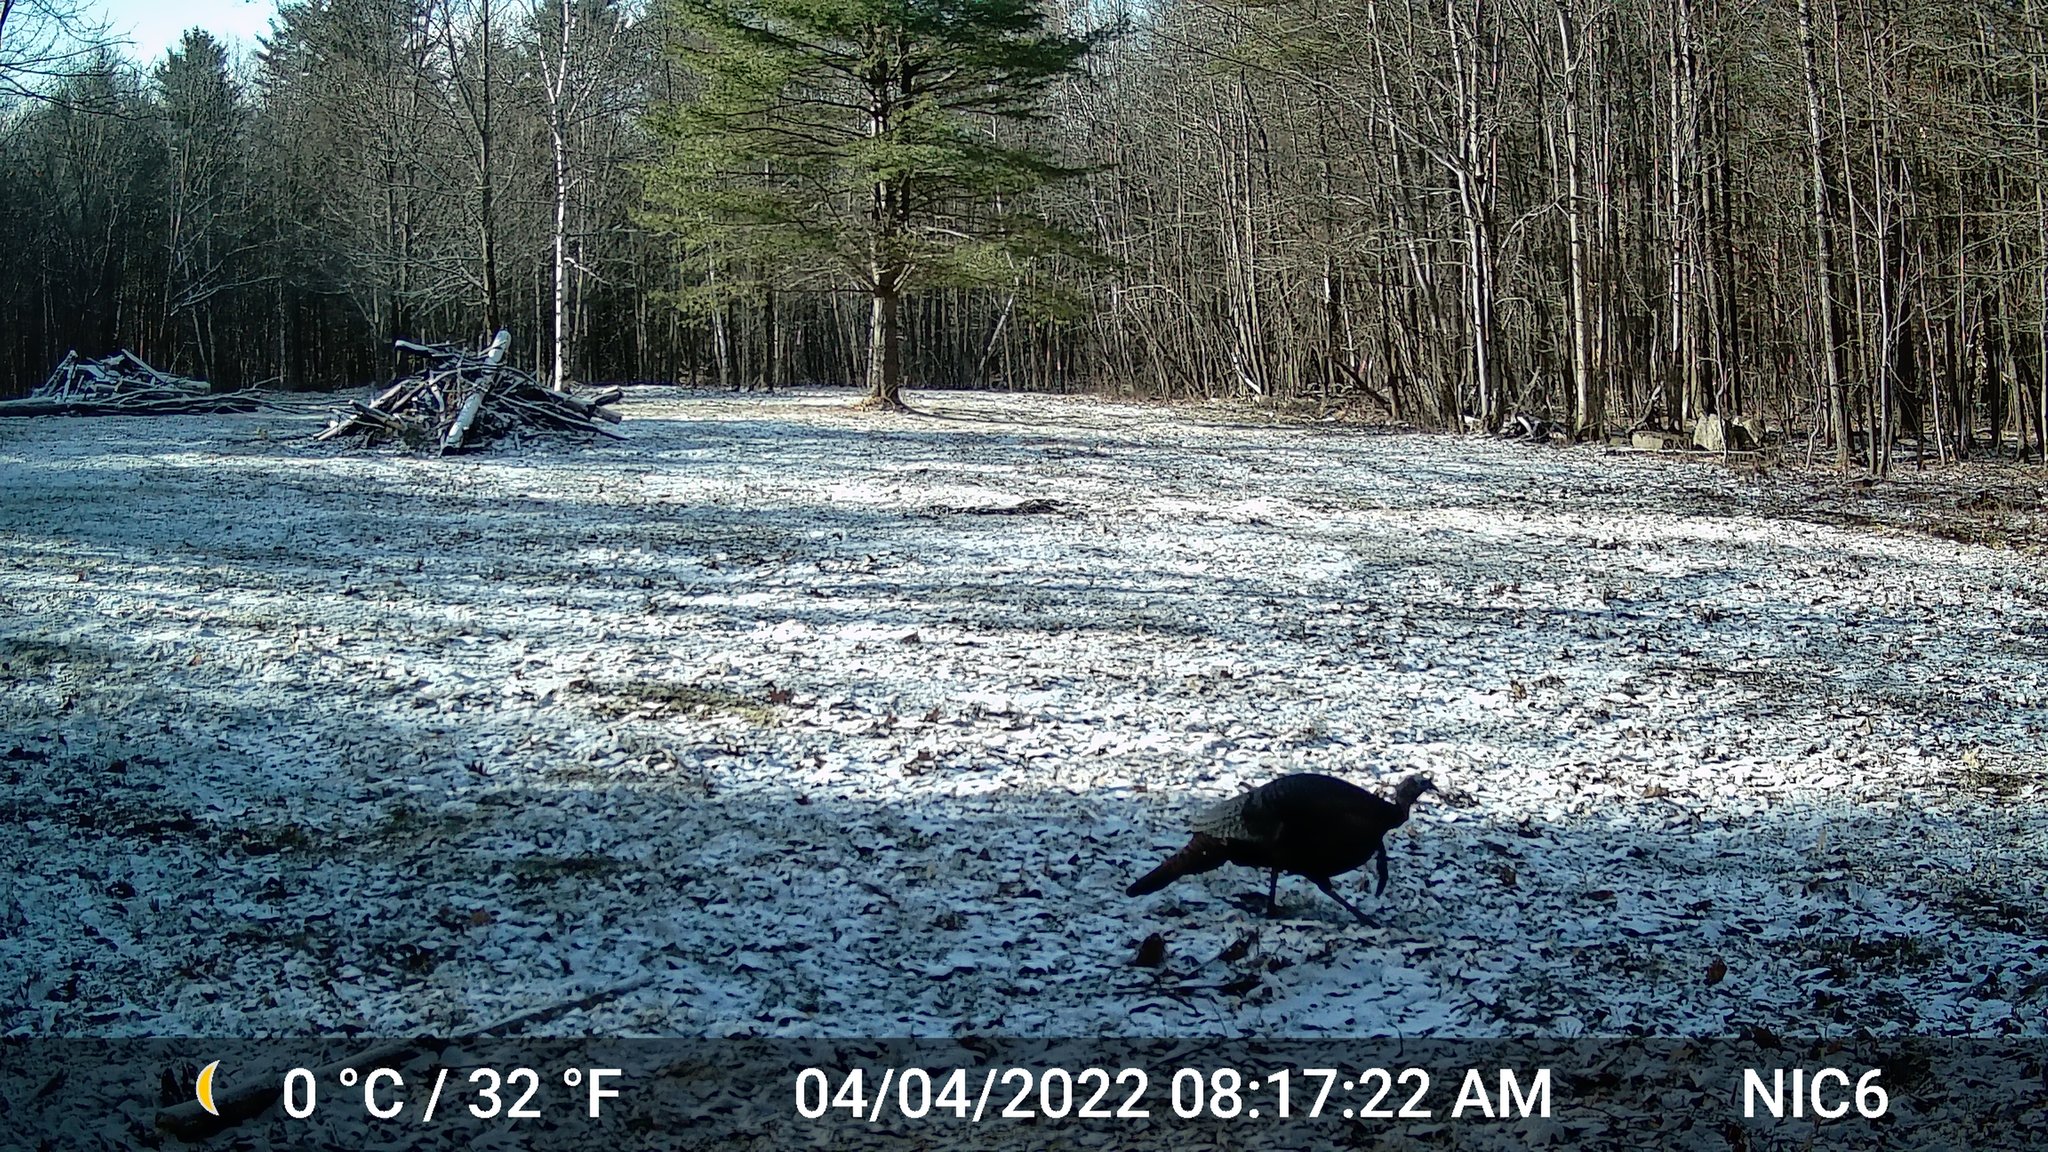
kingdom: Animalia
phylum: Chordata
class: Aves
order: Galliformes
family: Phasianidae
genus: Meleagris
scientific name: Meleagris gallopavo
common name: Wild turkey
